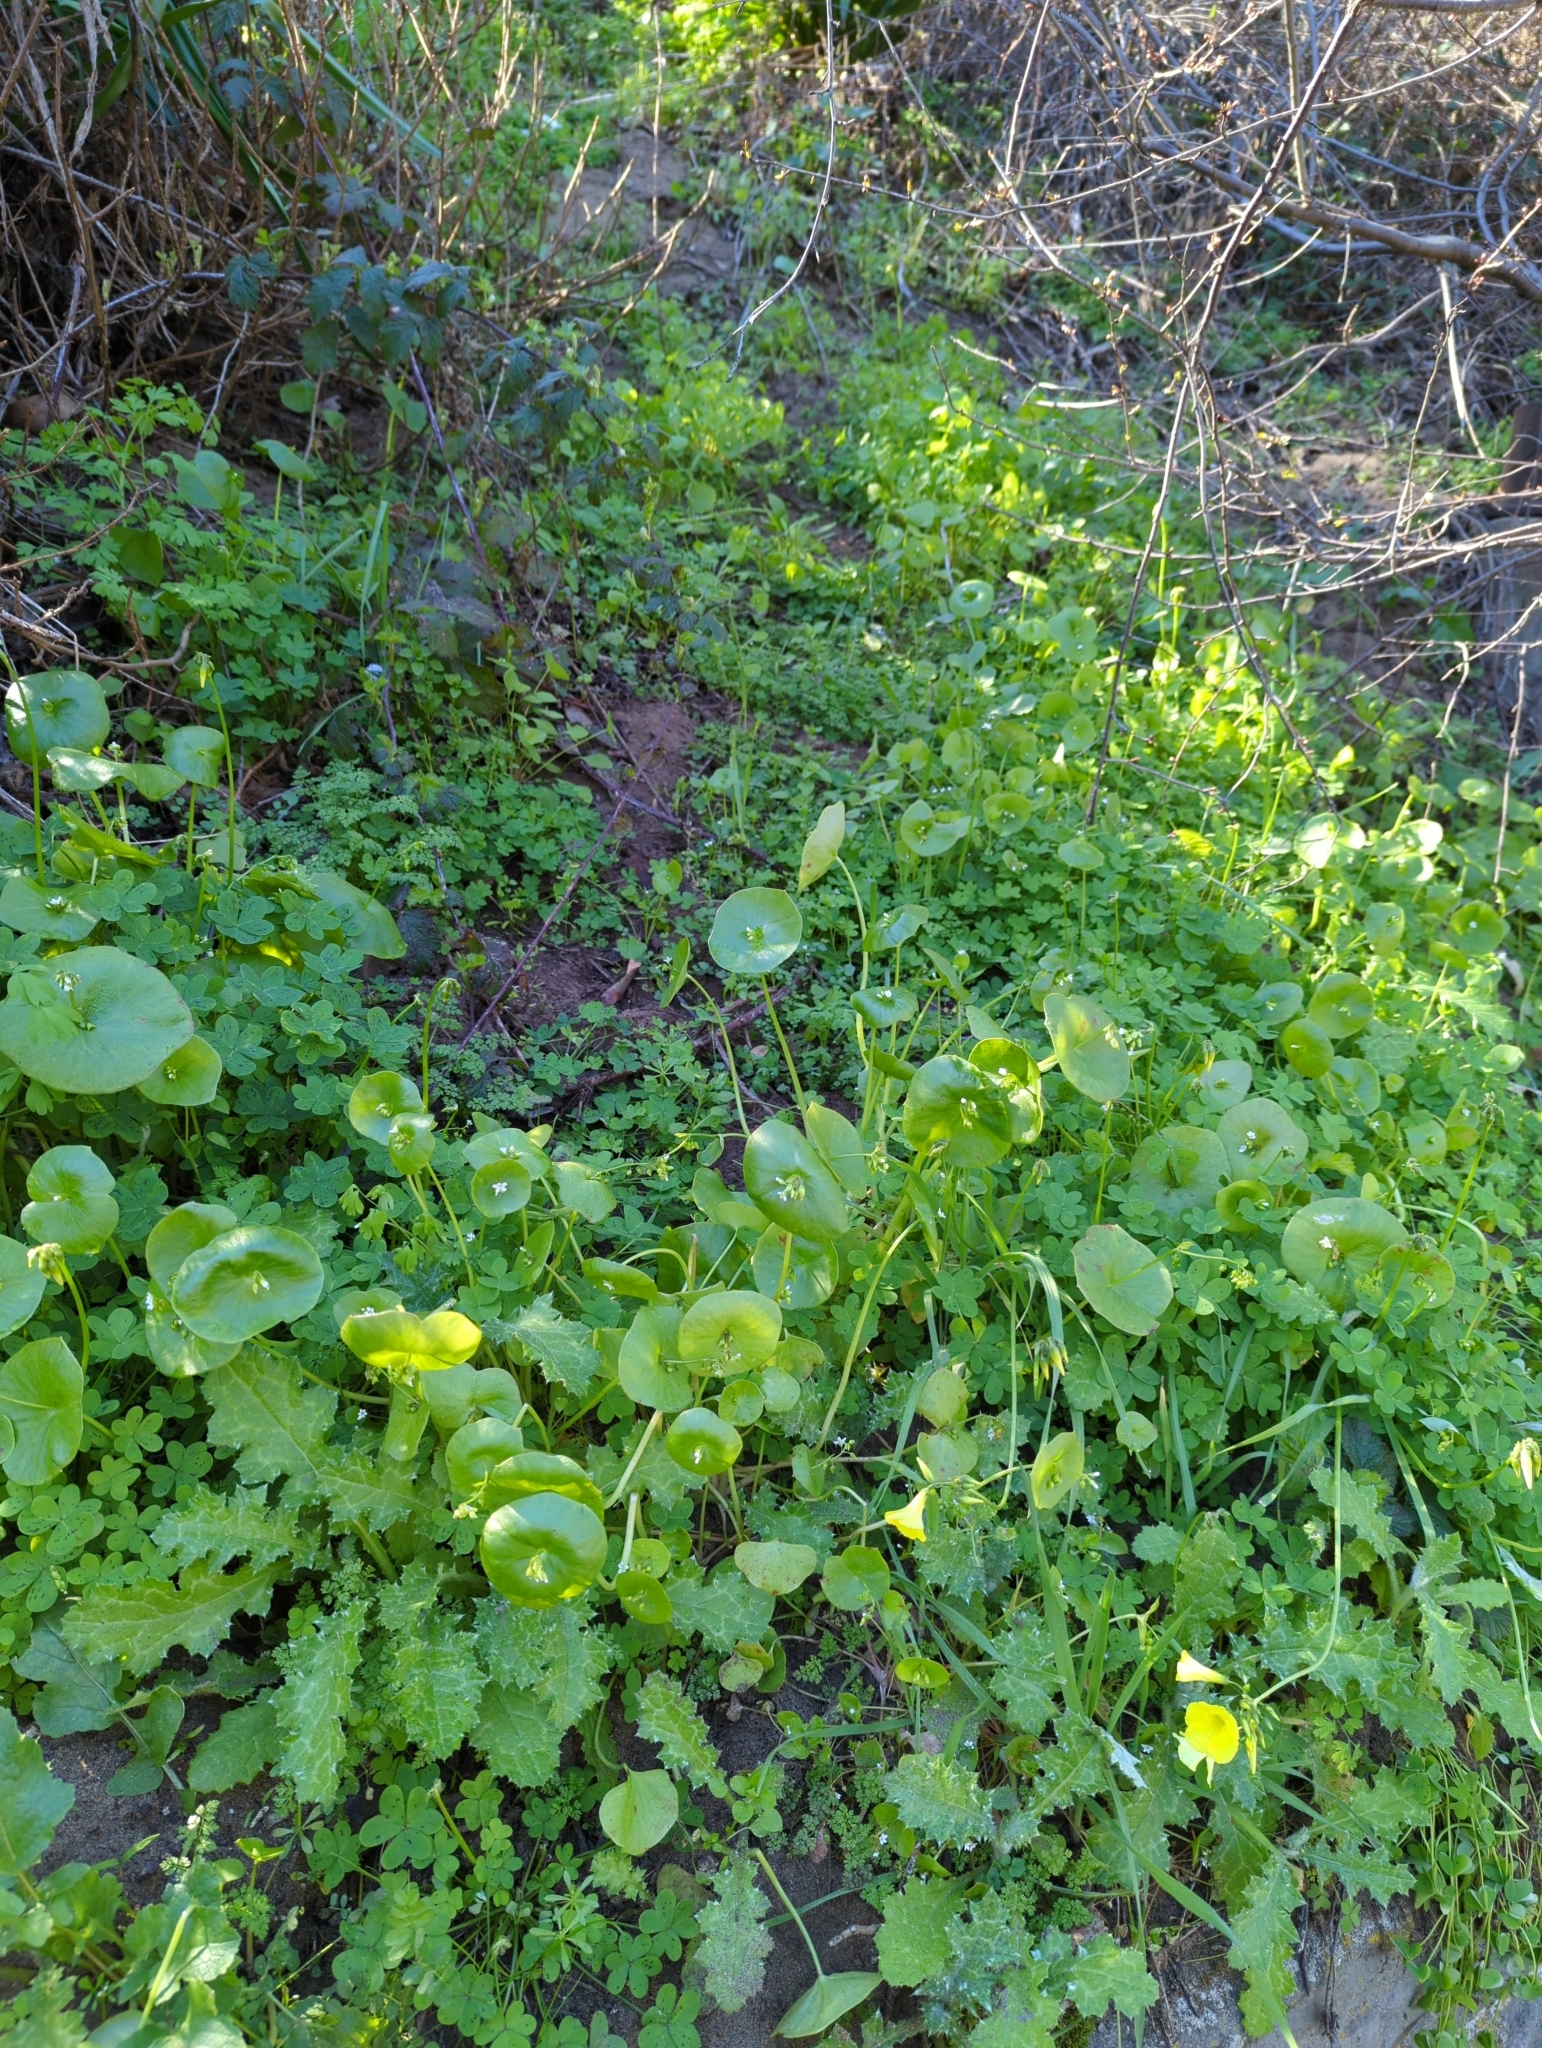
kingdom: Plantae
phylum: Tracheophyta
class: Magnoliopsida
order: Caryophyllales
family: Montiaceae
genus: Claytonia
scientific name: Claytonia perfoliata
